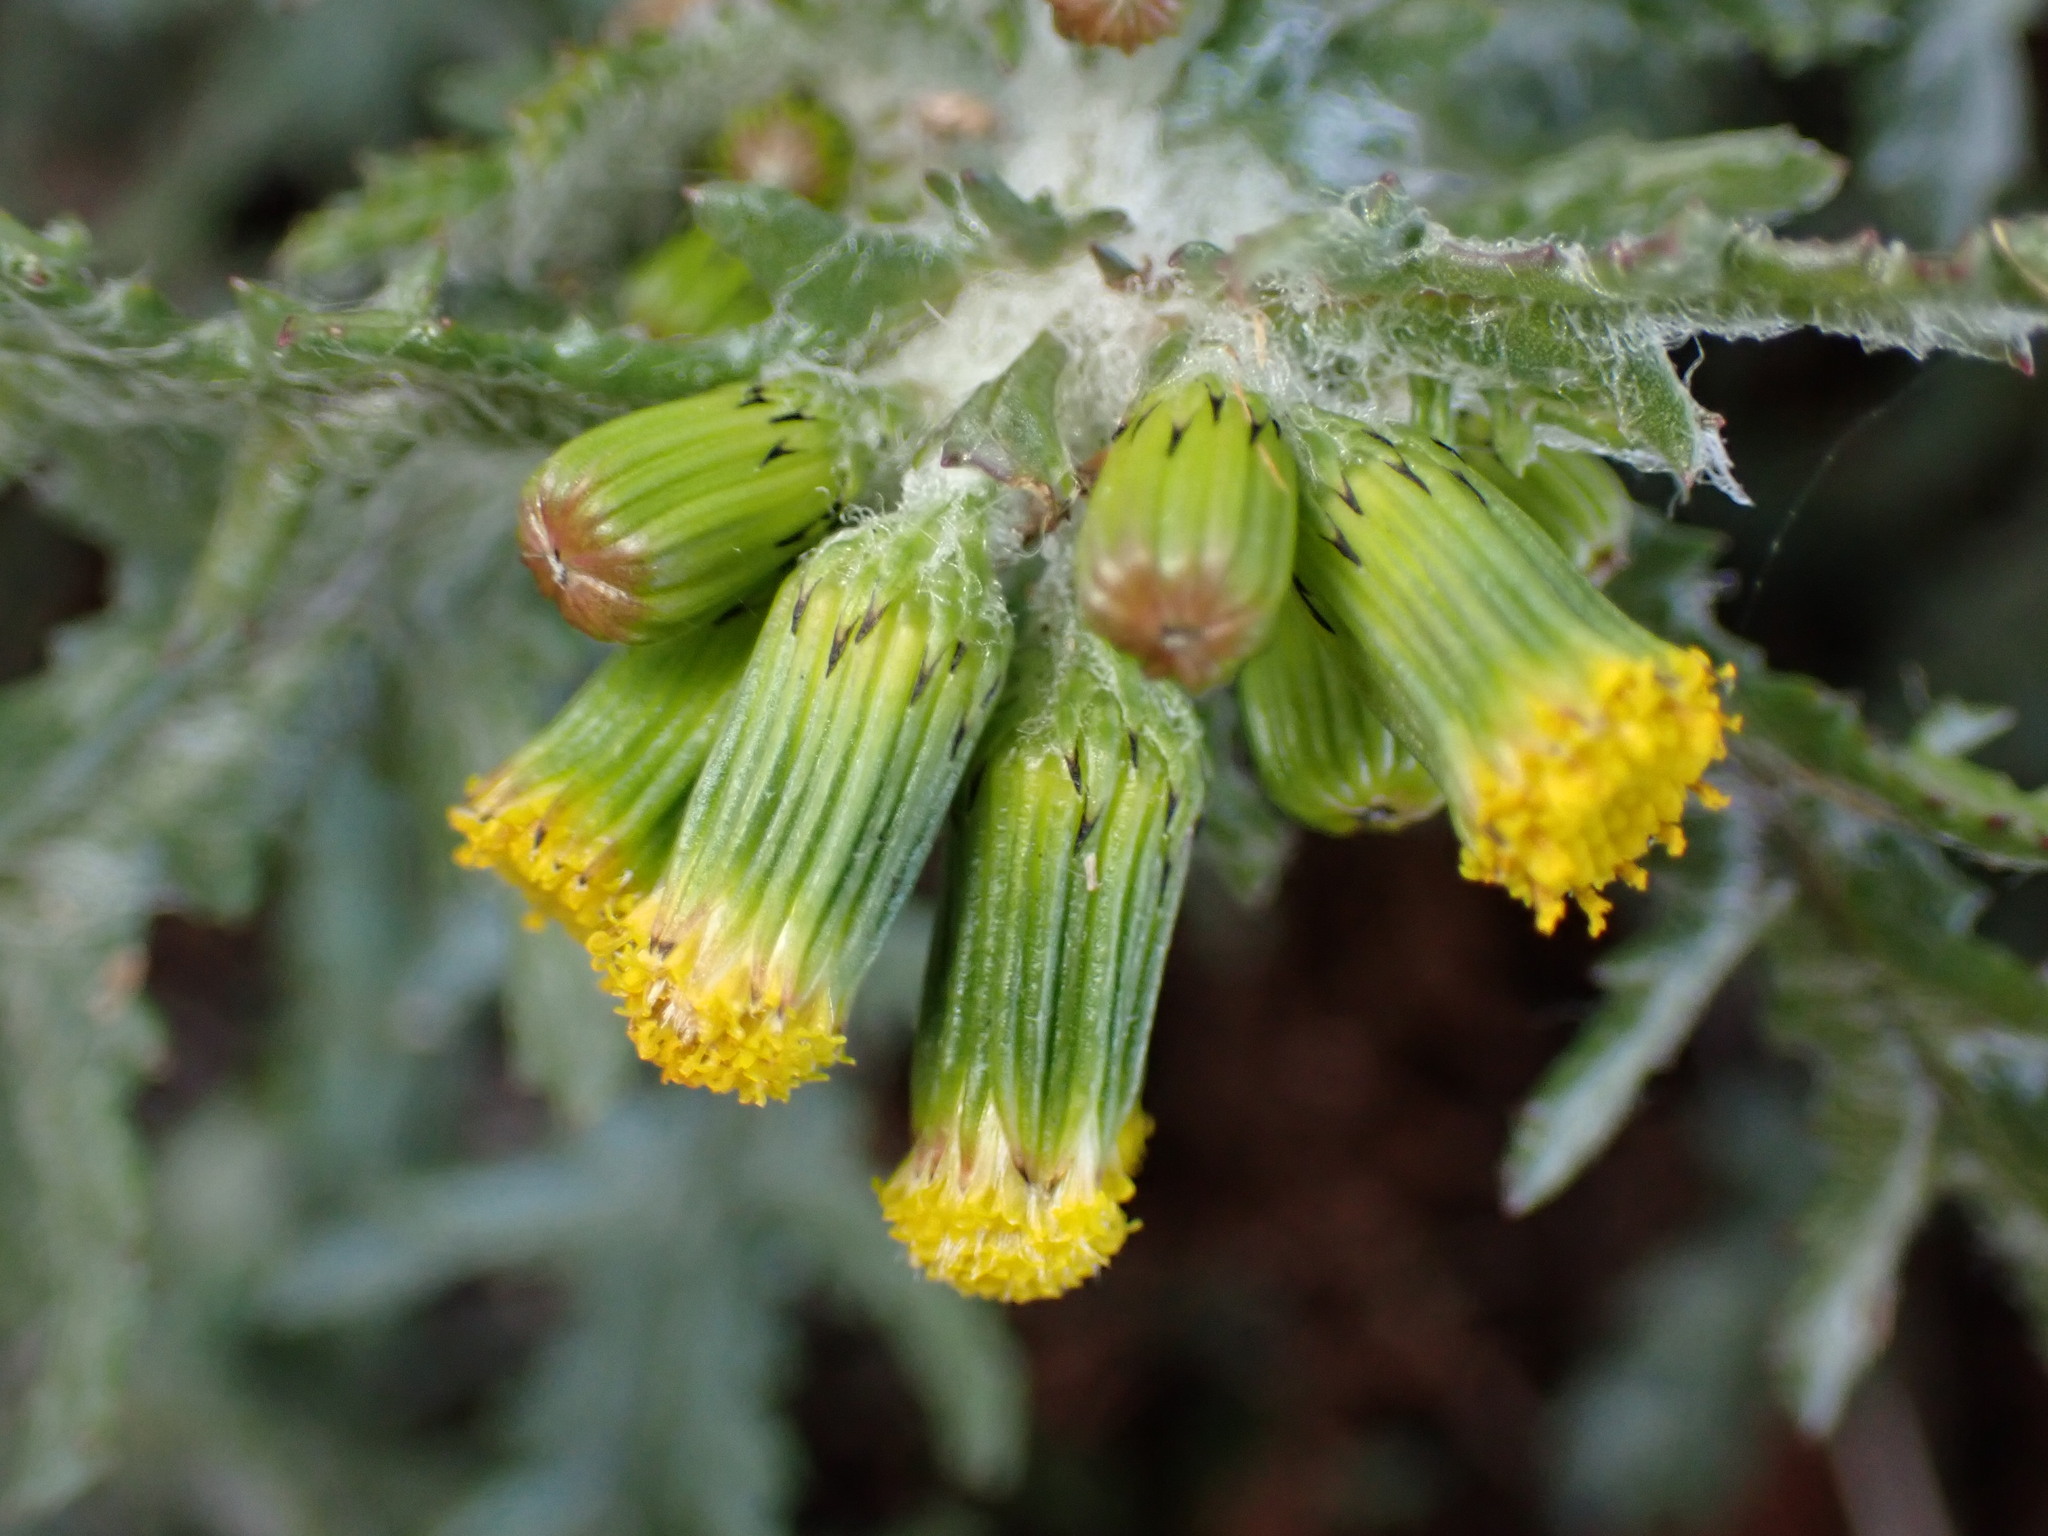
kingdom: Plantae
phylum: Tracheophyta
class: Magnoliopsida
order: Asterales
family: Asteraceae
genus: Senecio
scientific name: Senecio vulgaris
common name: Old-man-in-the-spring
